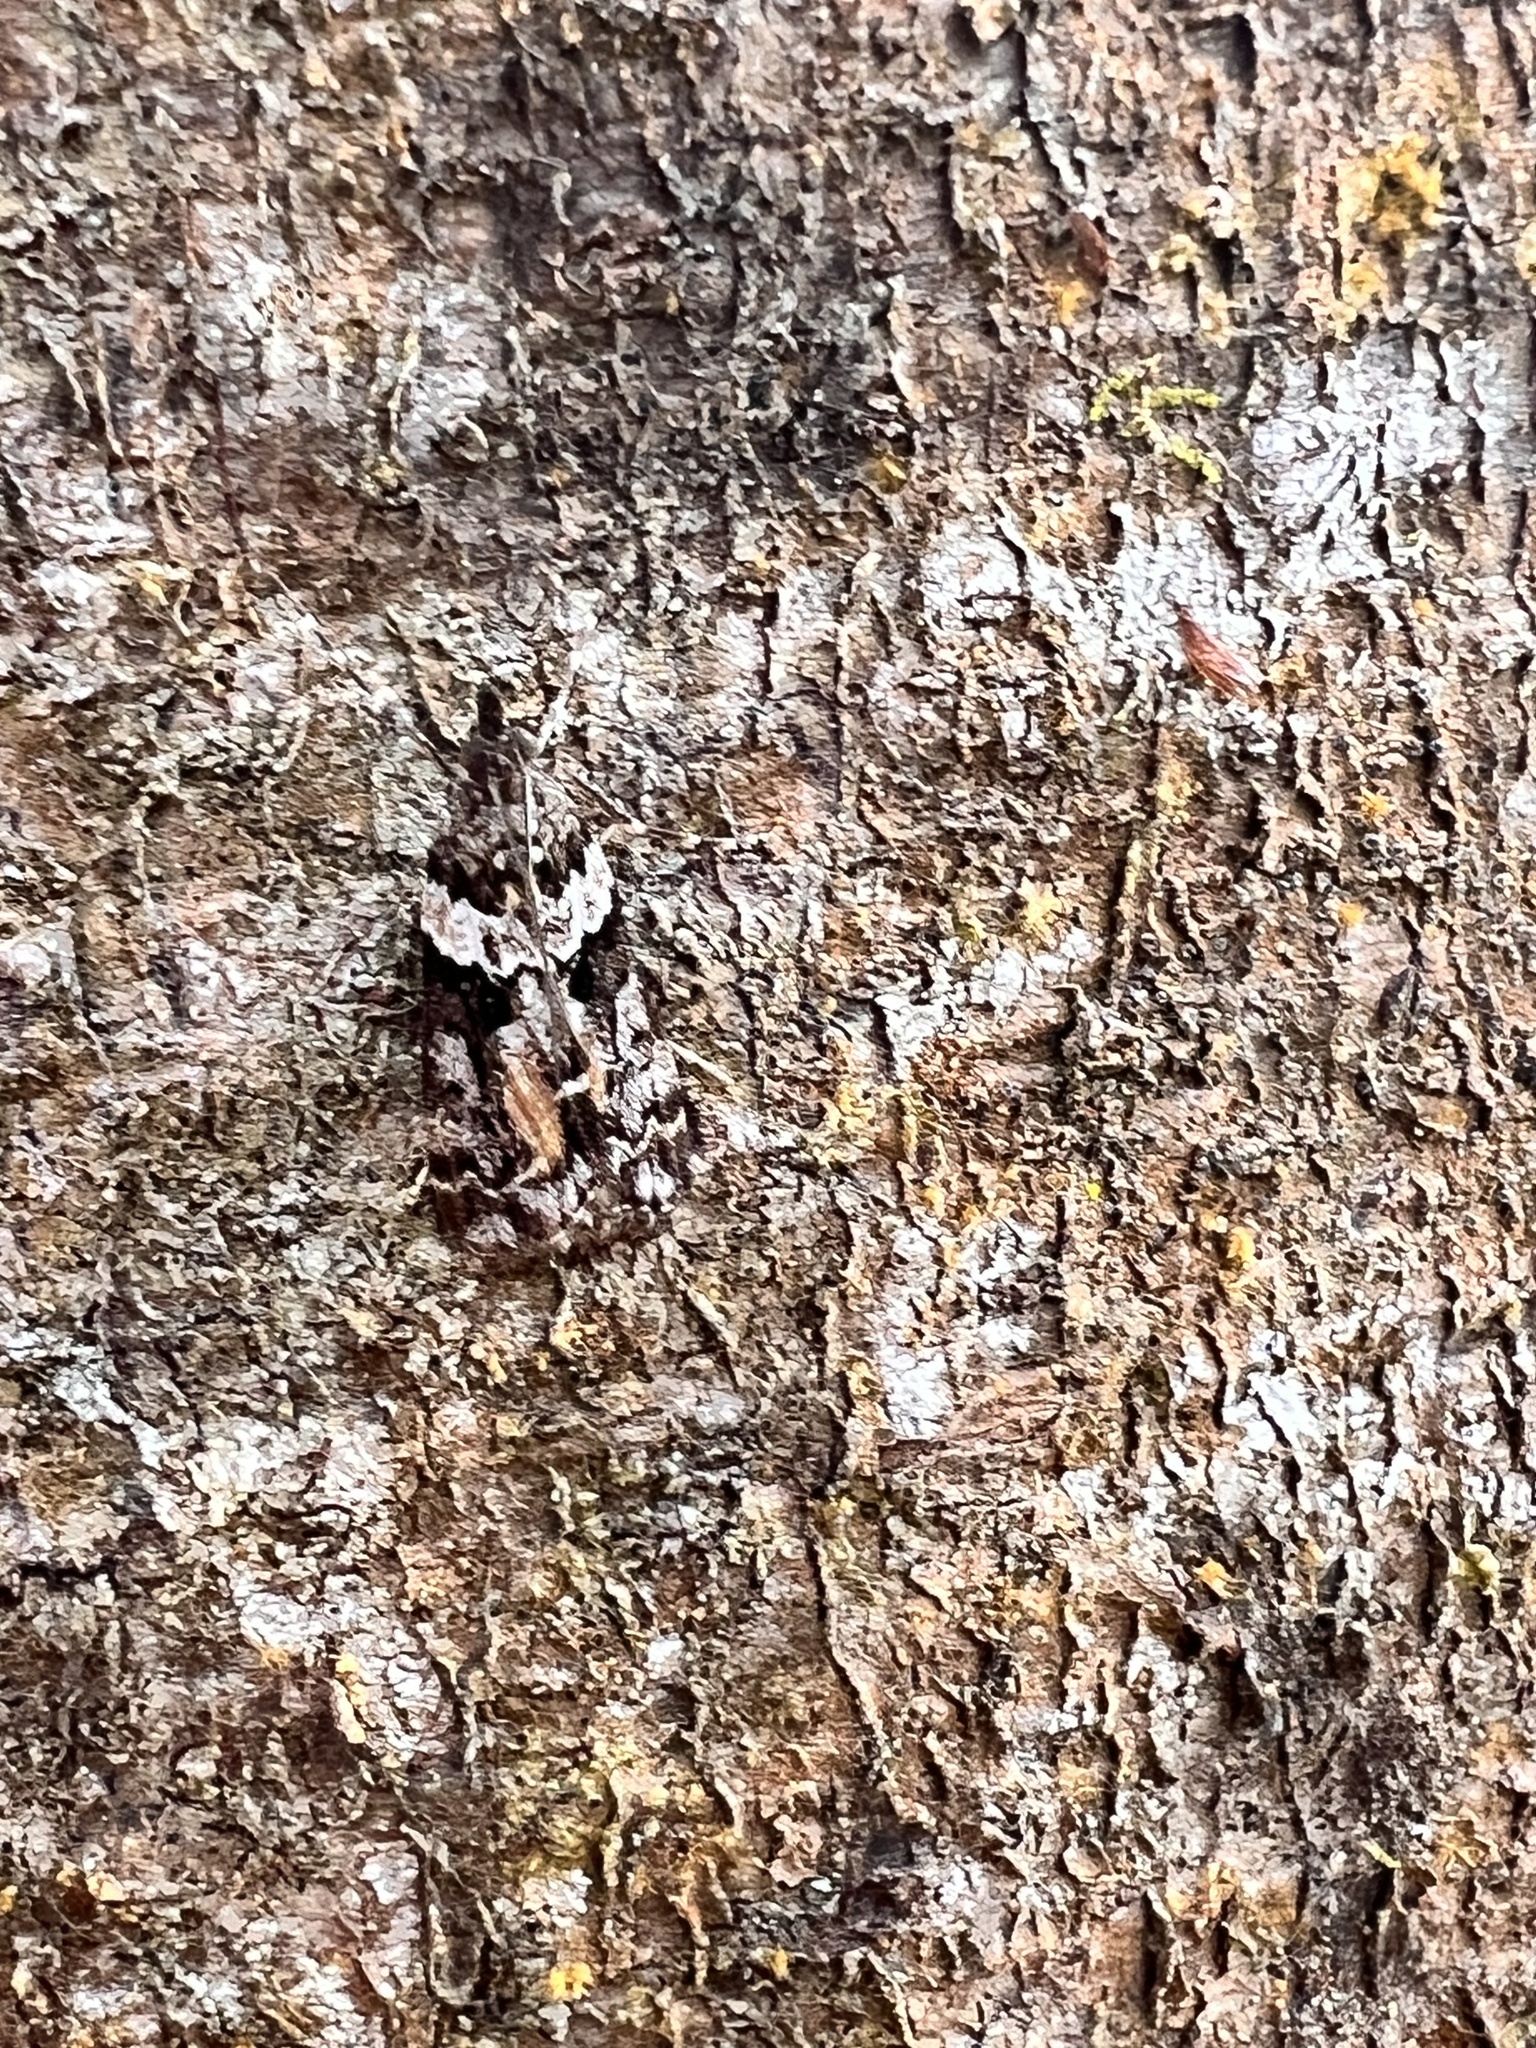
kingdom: Animalia
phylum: Arthropoda
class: Insecta
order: Lepidoptera
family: Crambidae
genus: Eudonia
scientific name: Eudonia submarginalis
